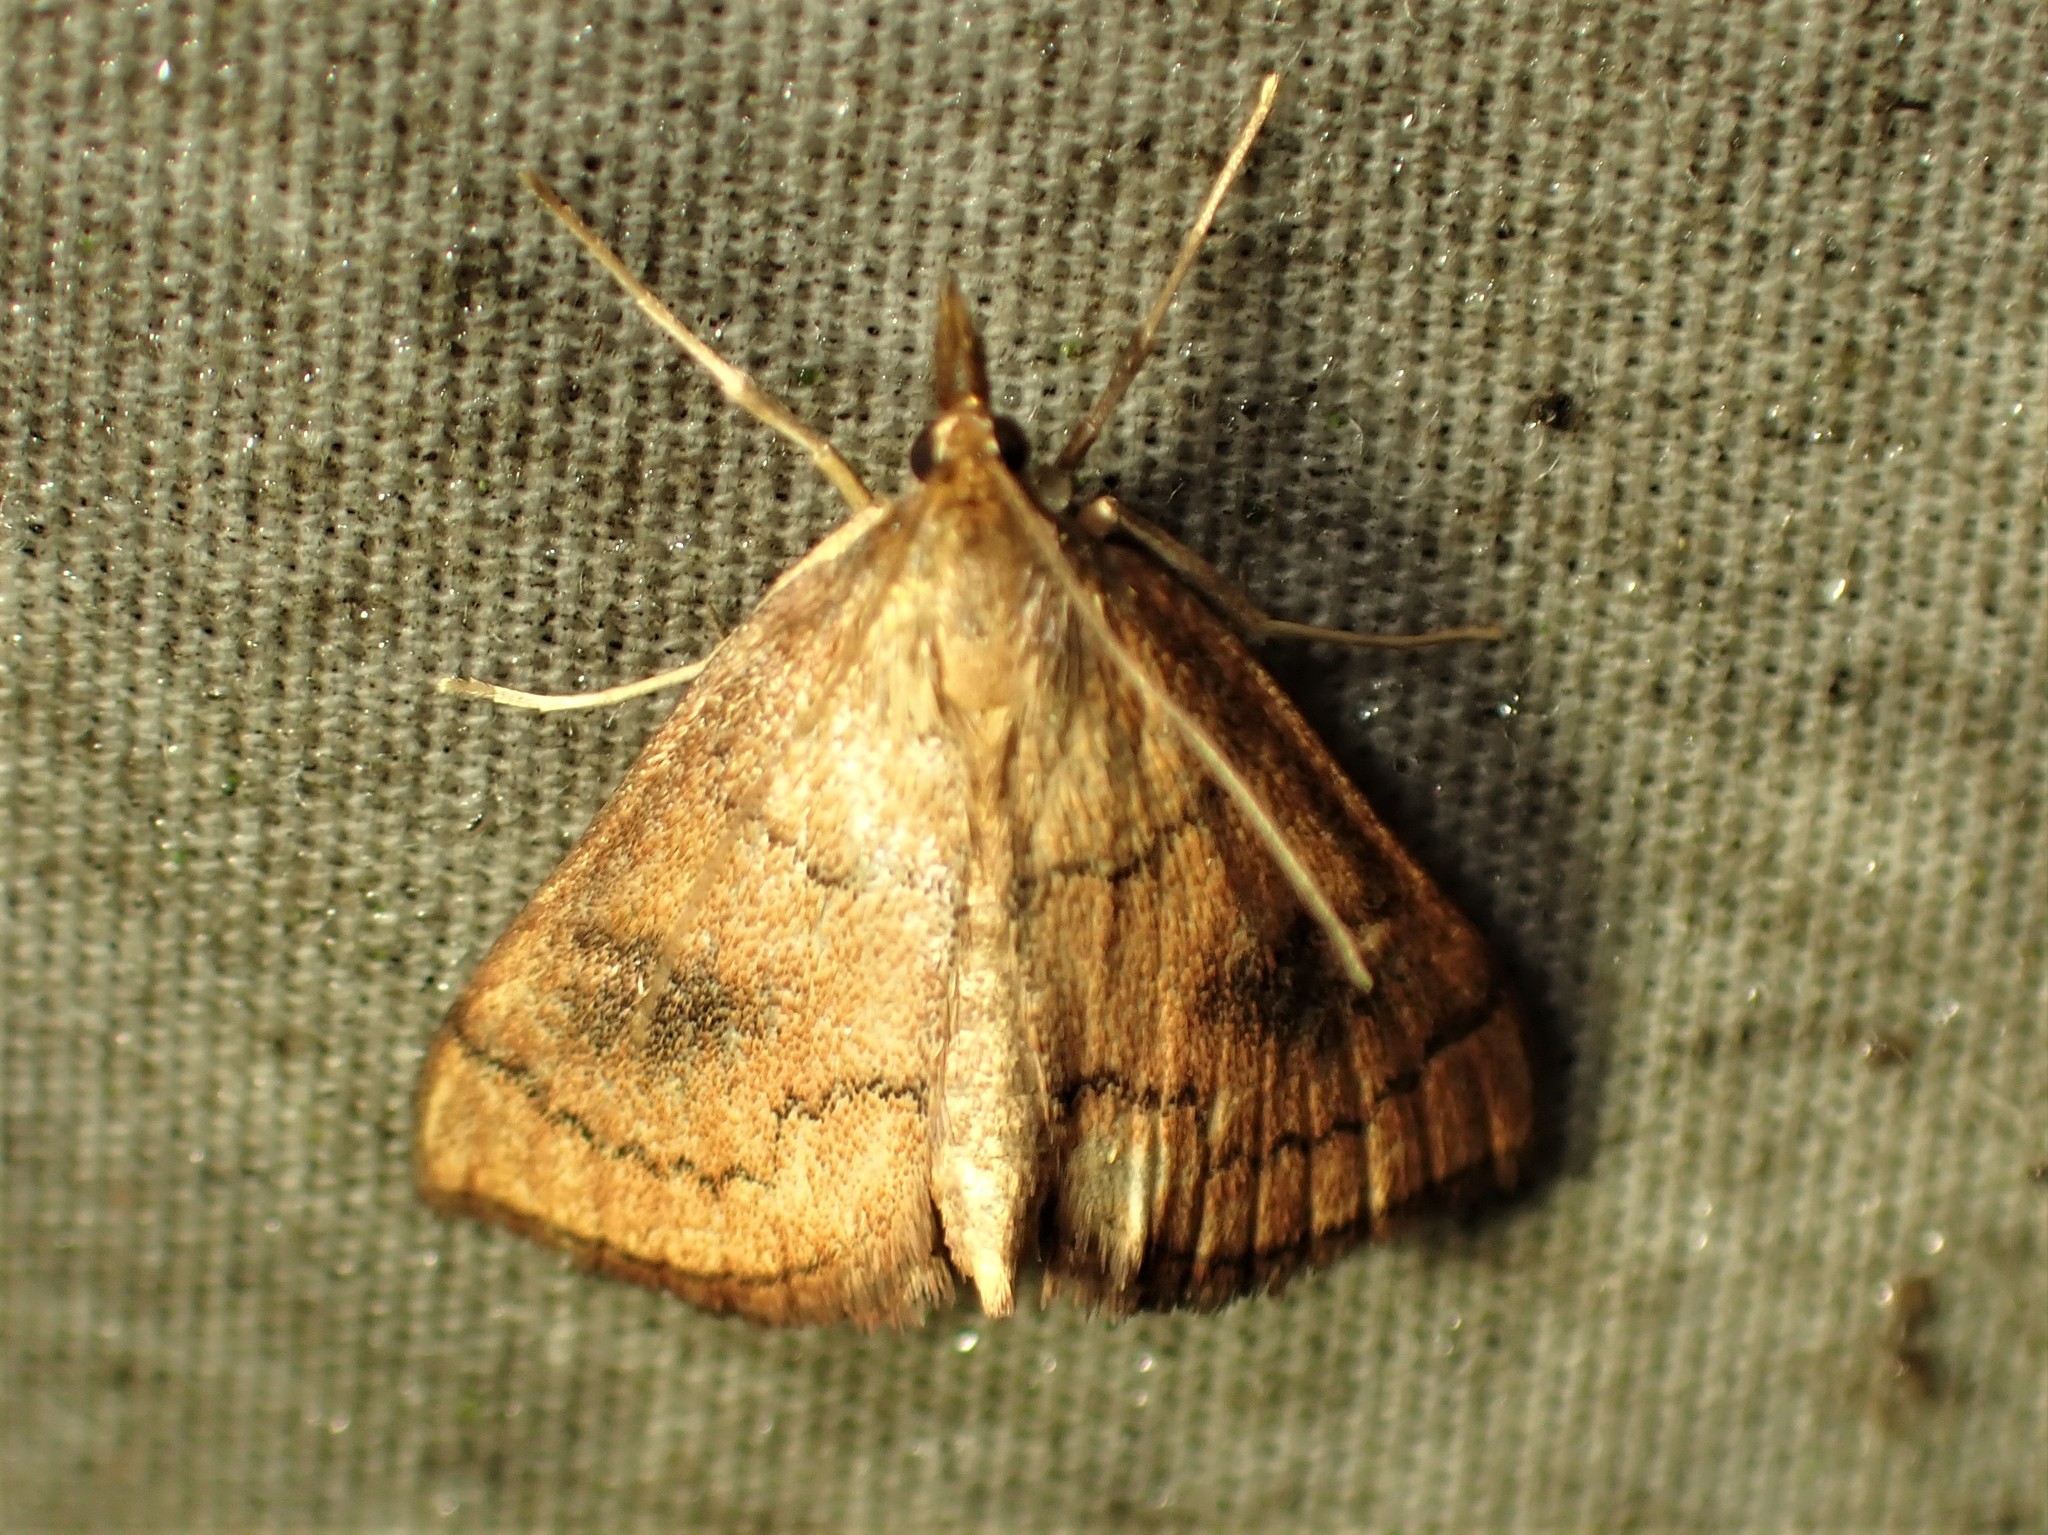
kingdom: Animalia
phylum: Arthropoda
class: Insecta
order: Lepidoptera
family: Crambidae
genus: Fumibotys
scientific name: Fumibotys fumalis
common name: Mint root borer moth
